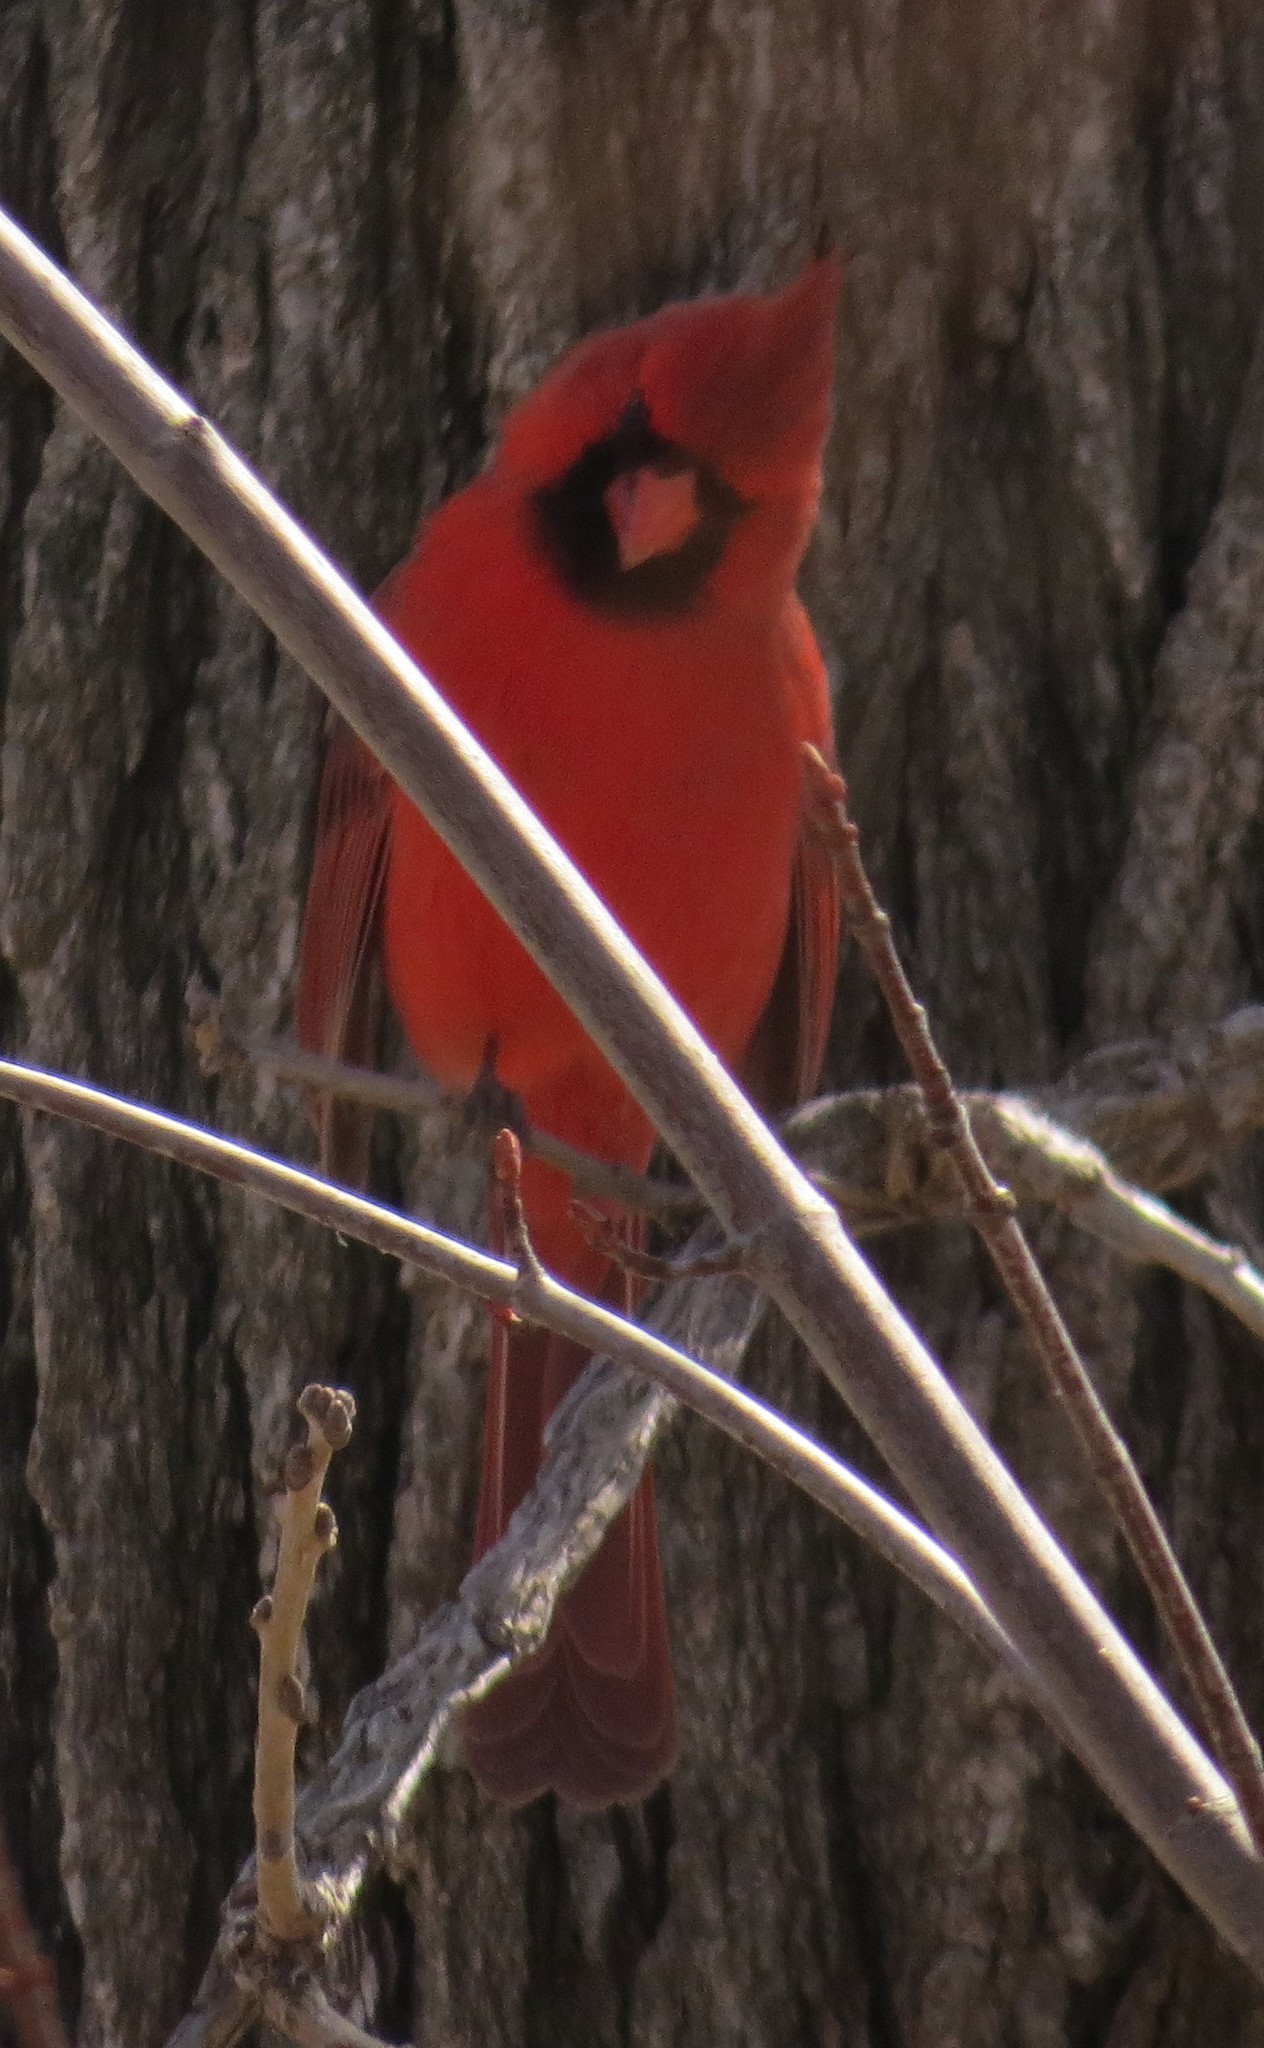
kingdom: Animalia
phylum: Chordata
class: Aves
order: Passeriformes
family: Cardinalidae
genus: Cardinalis
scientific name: Cardinalis cardinalis
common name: Northern cardinal
